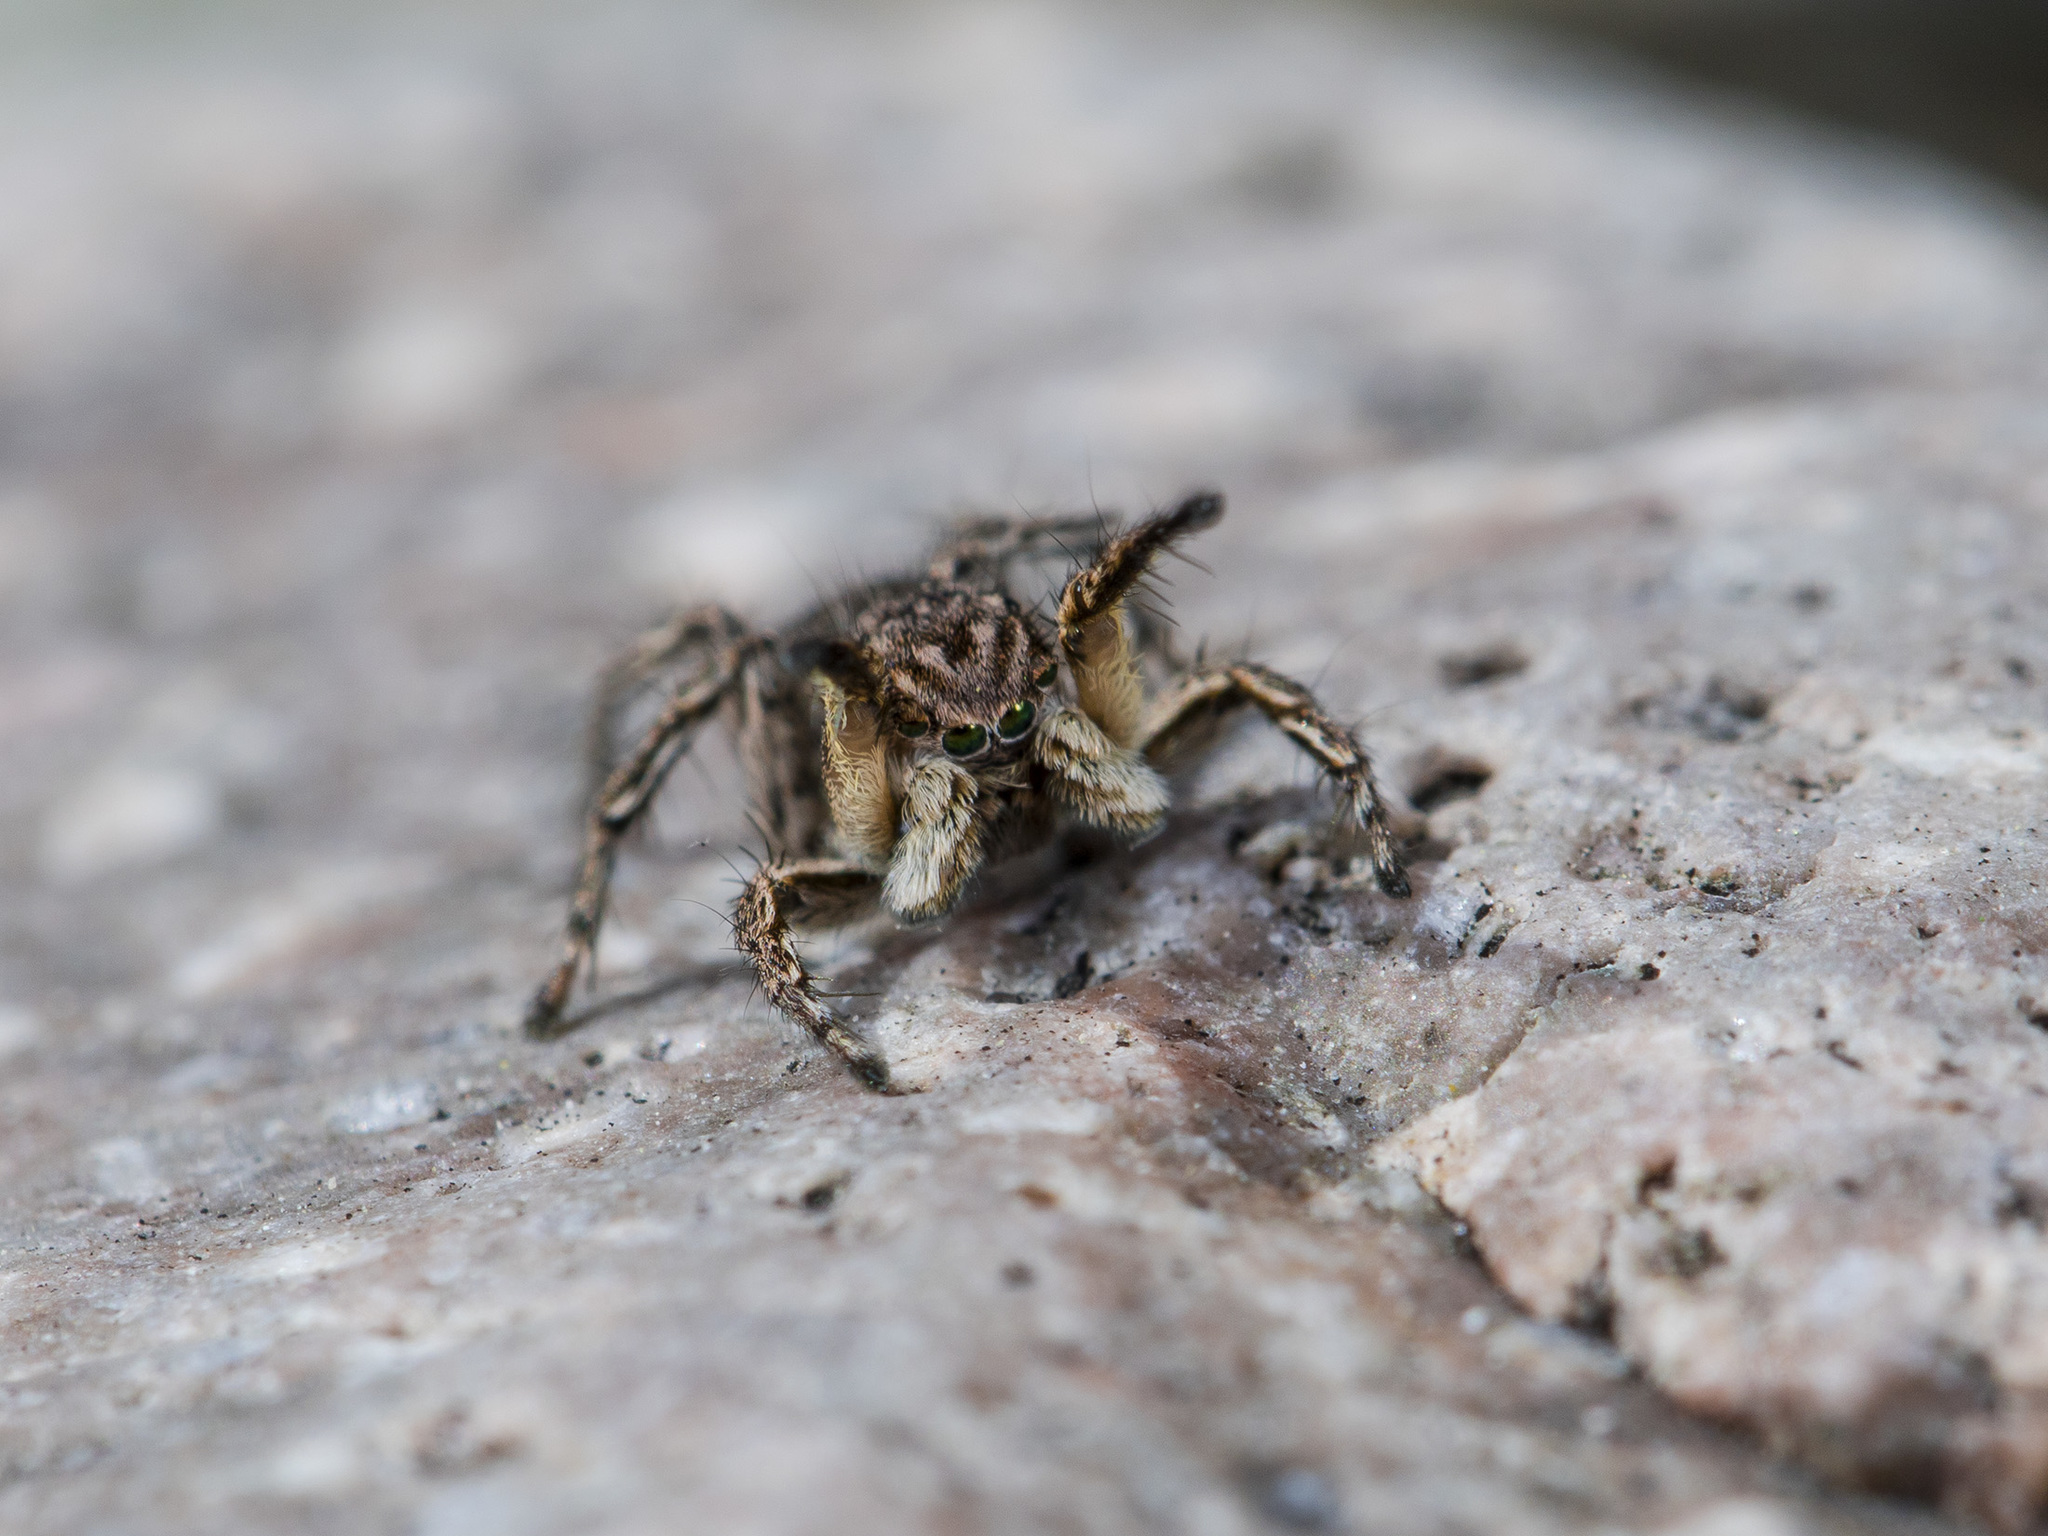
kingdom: Animalia
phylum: Arthropoda
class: Arachnida
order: Araneae
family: Salticidae
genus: Aelurillus
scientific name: Aelurillus v-insignitus
